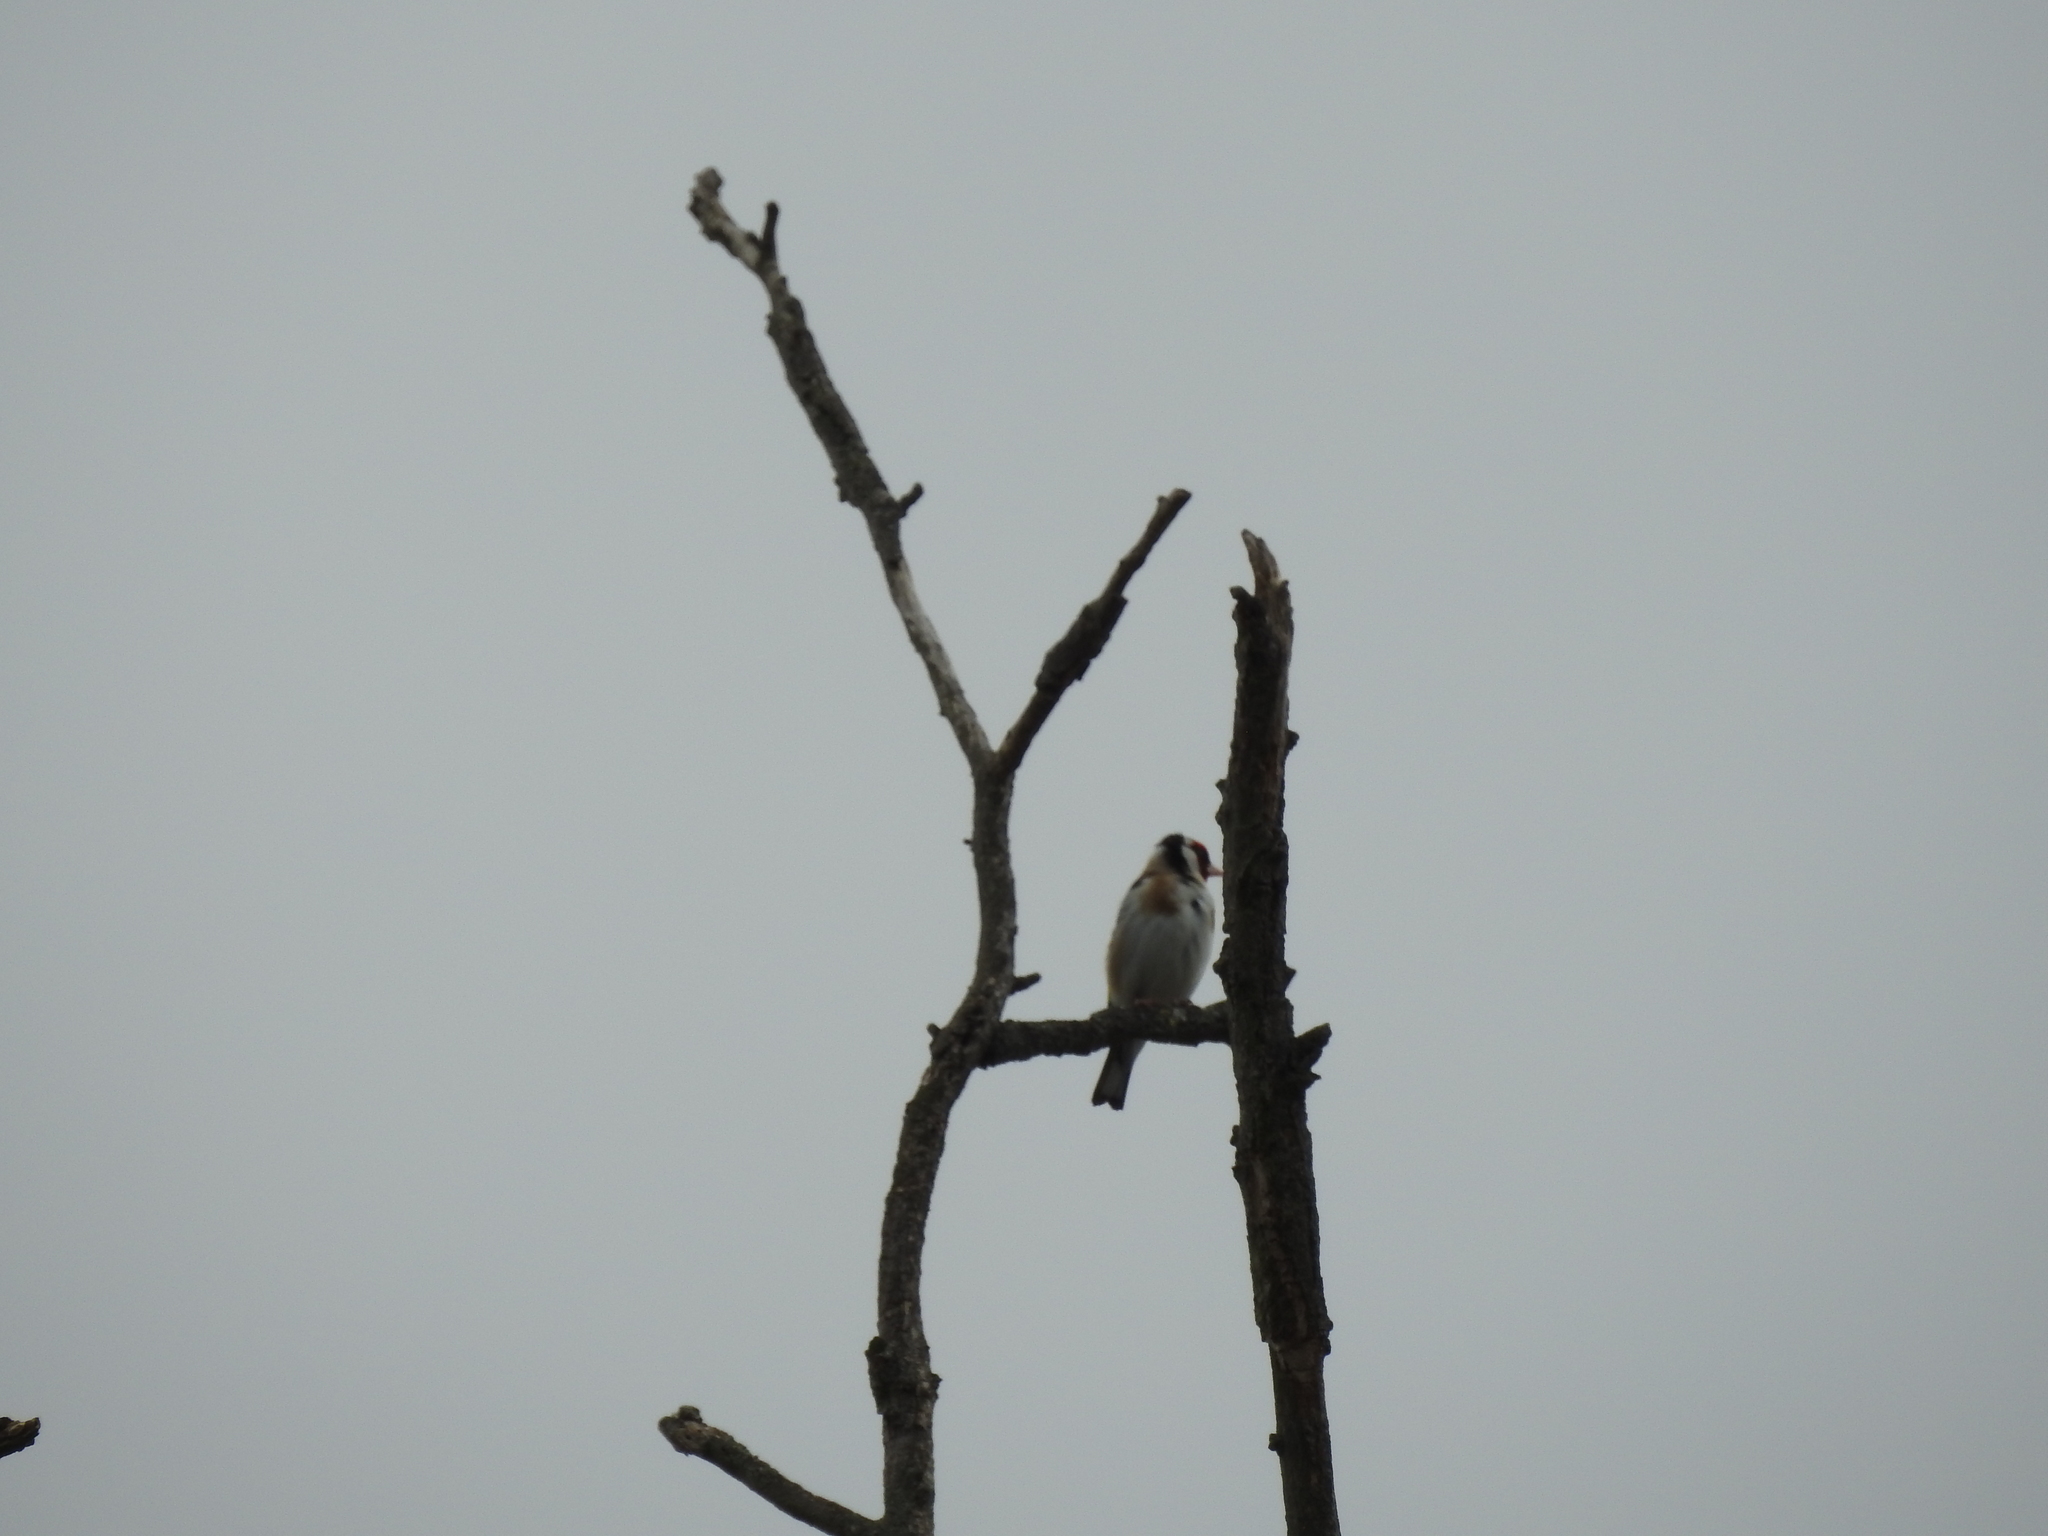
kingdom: Animalia
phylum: Chordata
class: Aves
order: Passeriformes
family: Fringillidae
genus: Carduelis
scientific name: Carduelis carduelis
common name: European goldfinch
